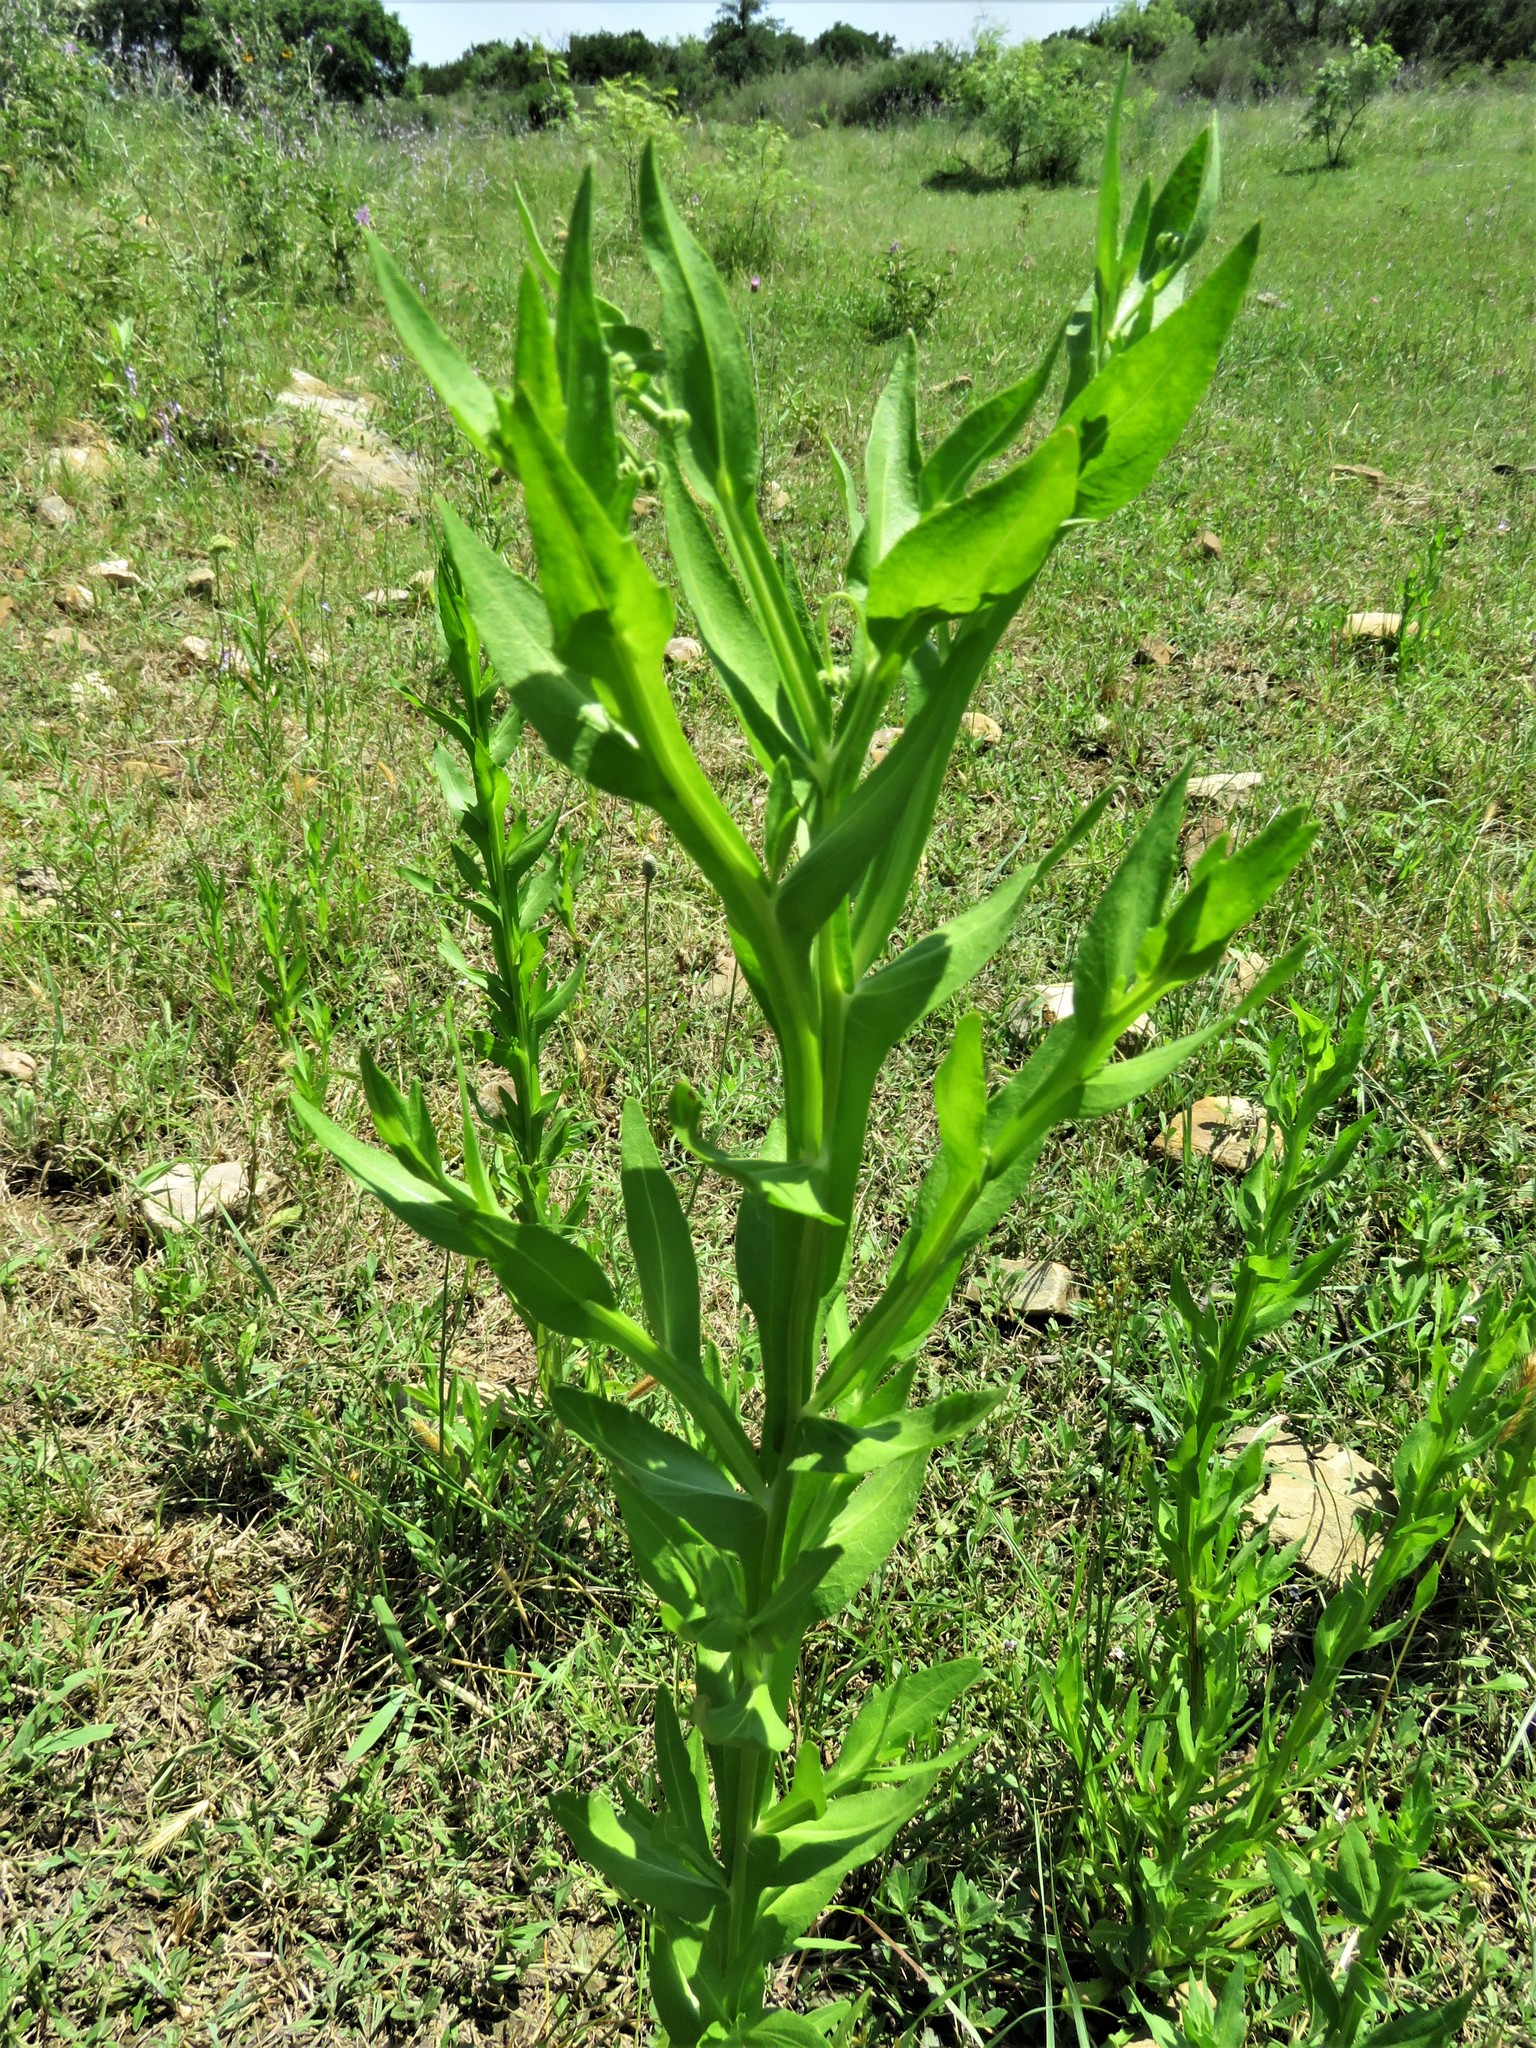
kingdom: Plantae
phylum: Tracheophyta
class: Magnoliopsida
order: Asterales
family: Asteraceae
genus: Helenium
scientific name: Helenium microcephalum
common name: Smallhead sneezeweed
